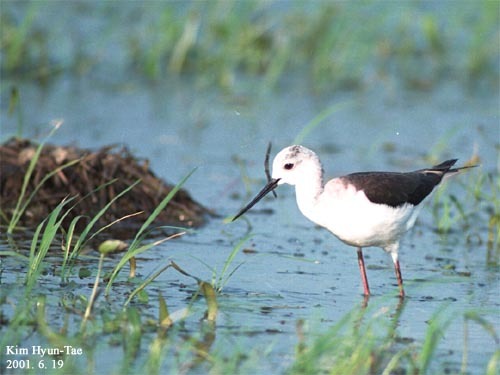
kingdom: Animalia
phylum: Chordata
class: Aves
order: Charadriiformes
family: Recurvirostridae
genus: Himantopus
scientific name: Himantopus himantopus
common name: Black-winged stilt
